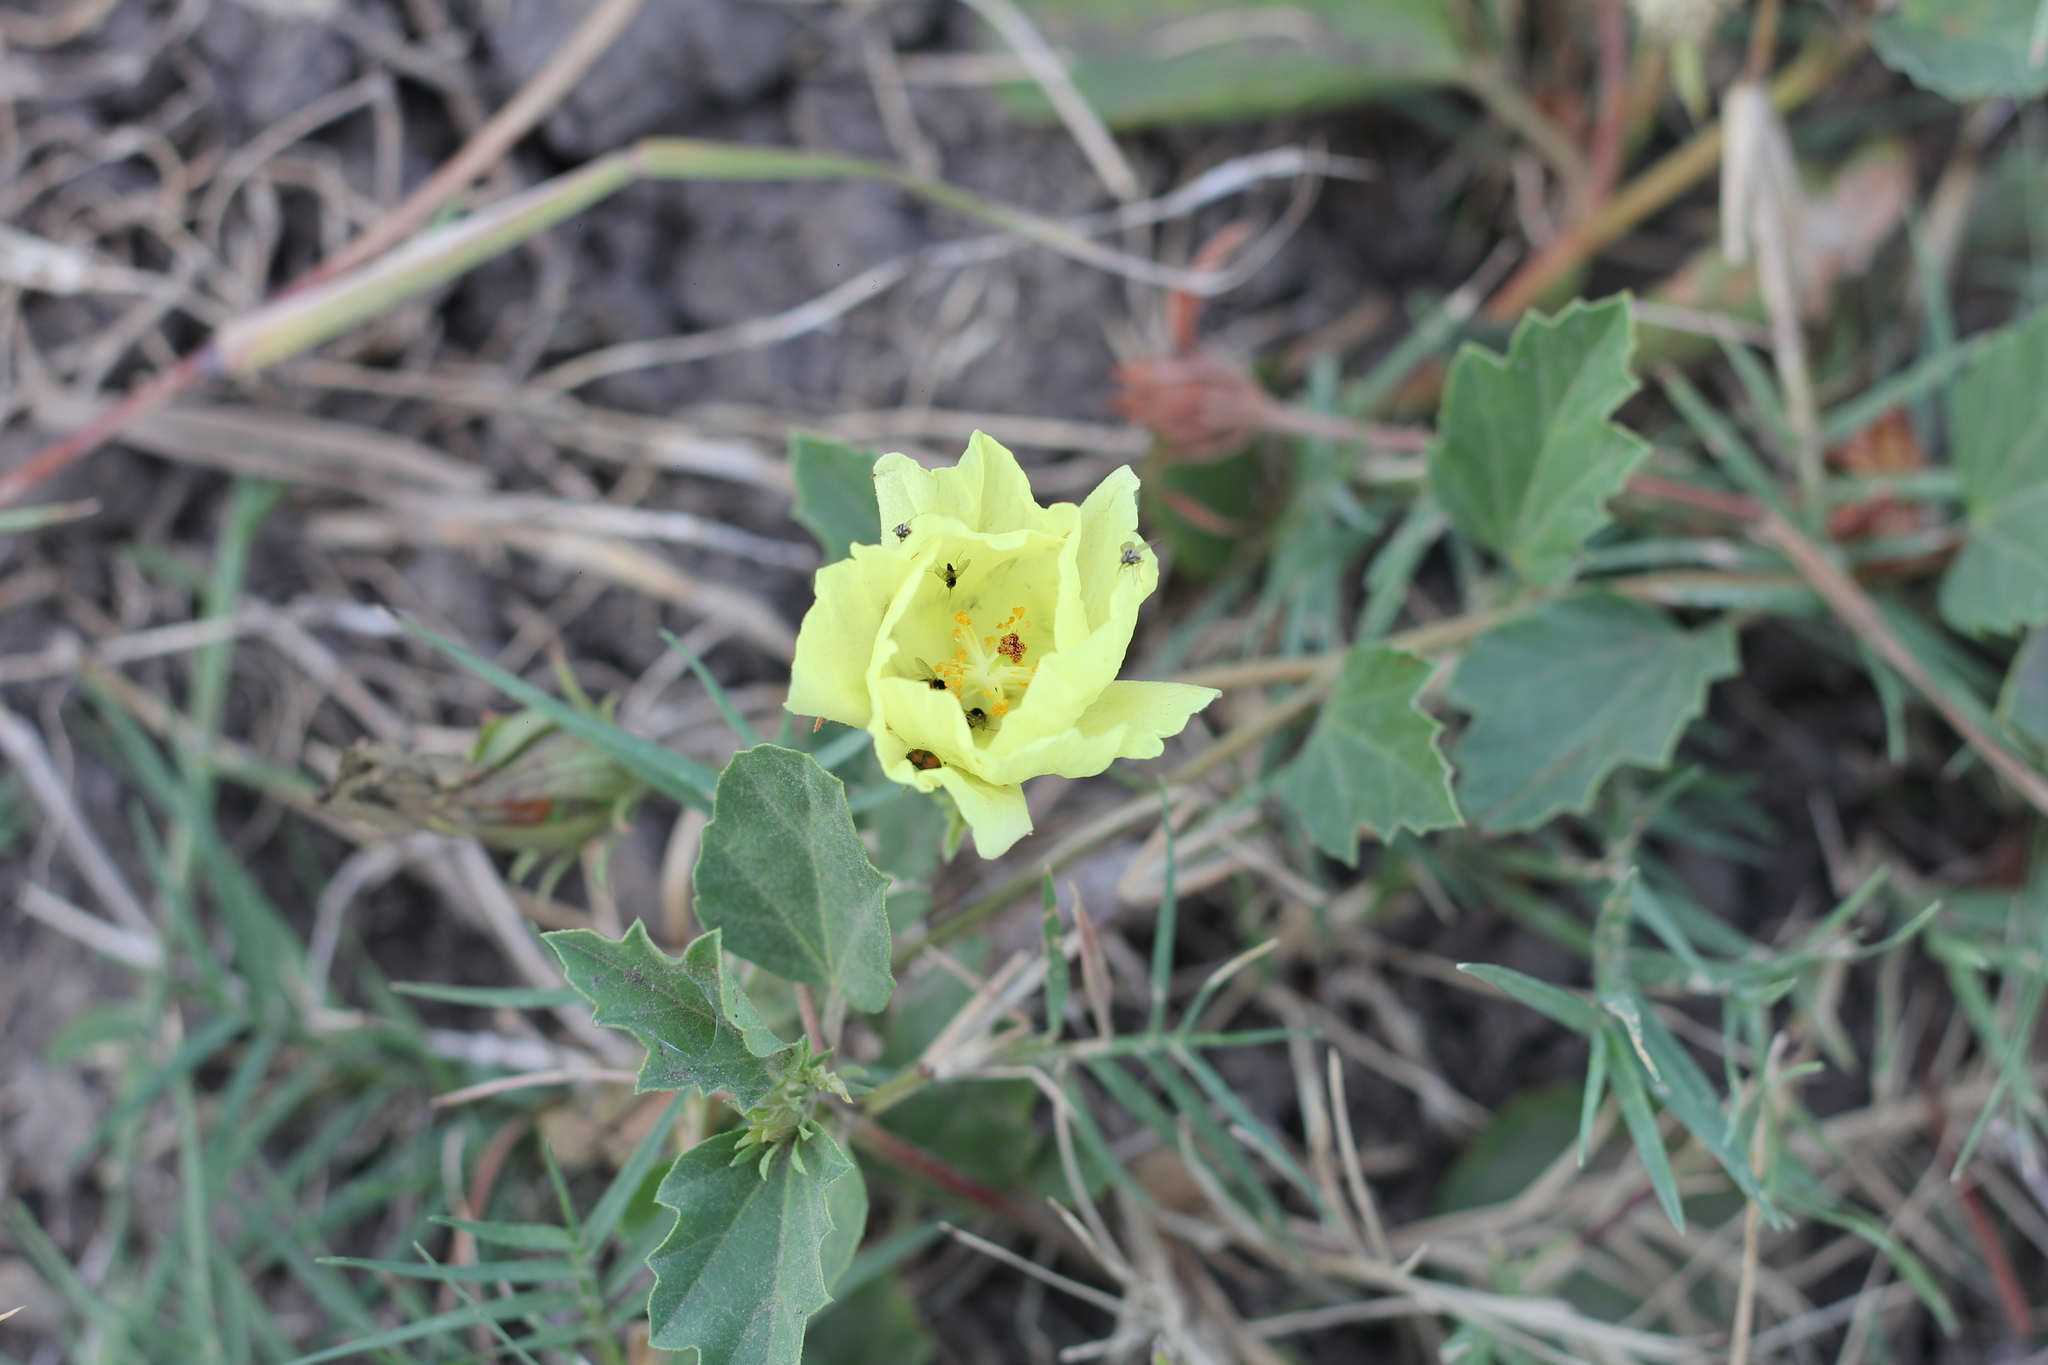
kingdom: Plantae
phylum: Tracheophyta
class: Magnoliopsida
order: Malvales
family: Malvaceae
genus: Cienfuegosia
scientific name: Cienfuegosia
